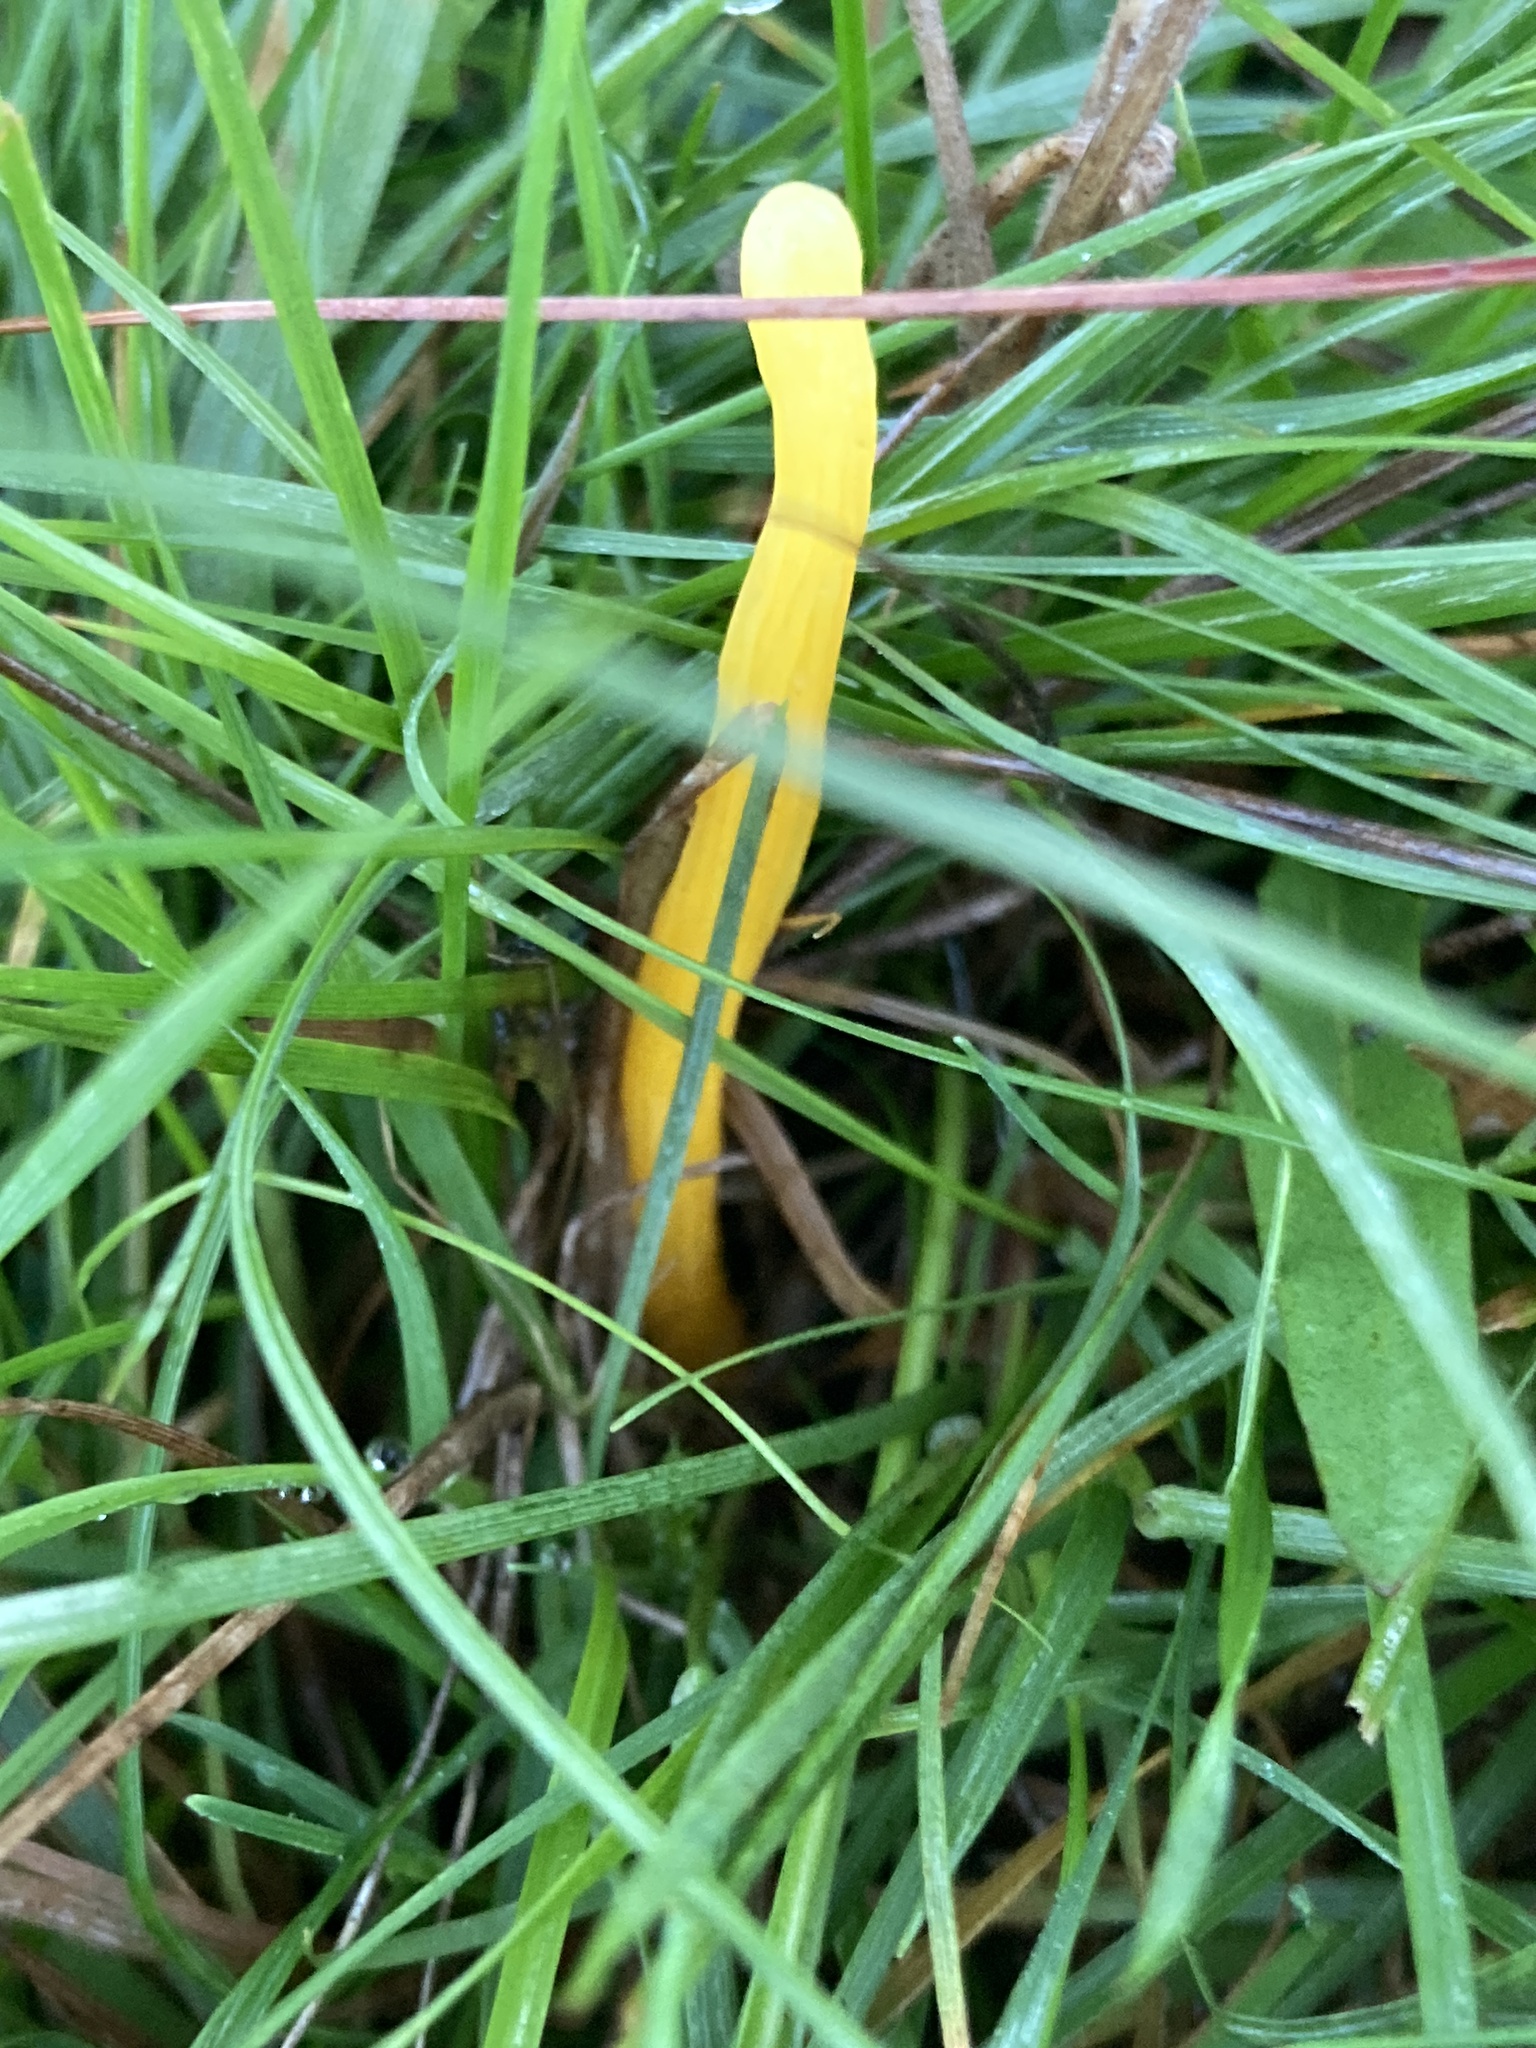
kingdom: Fungi
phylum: Basidiomycota
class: Agaricomycetes
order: Agaricales
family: Clavariaceae
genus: Clavulinopsis
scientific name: Clavulinopsis helvola
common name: Yellow club
